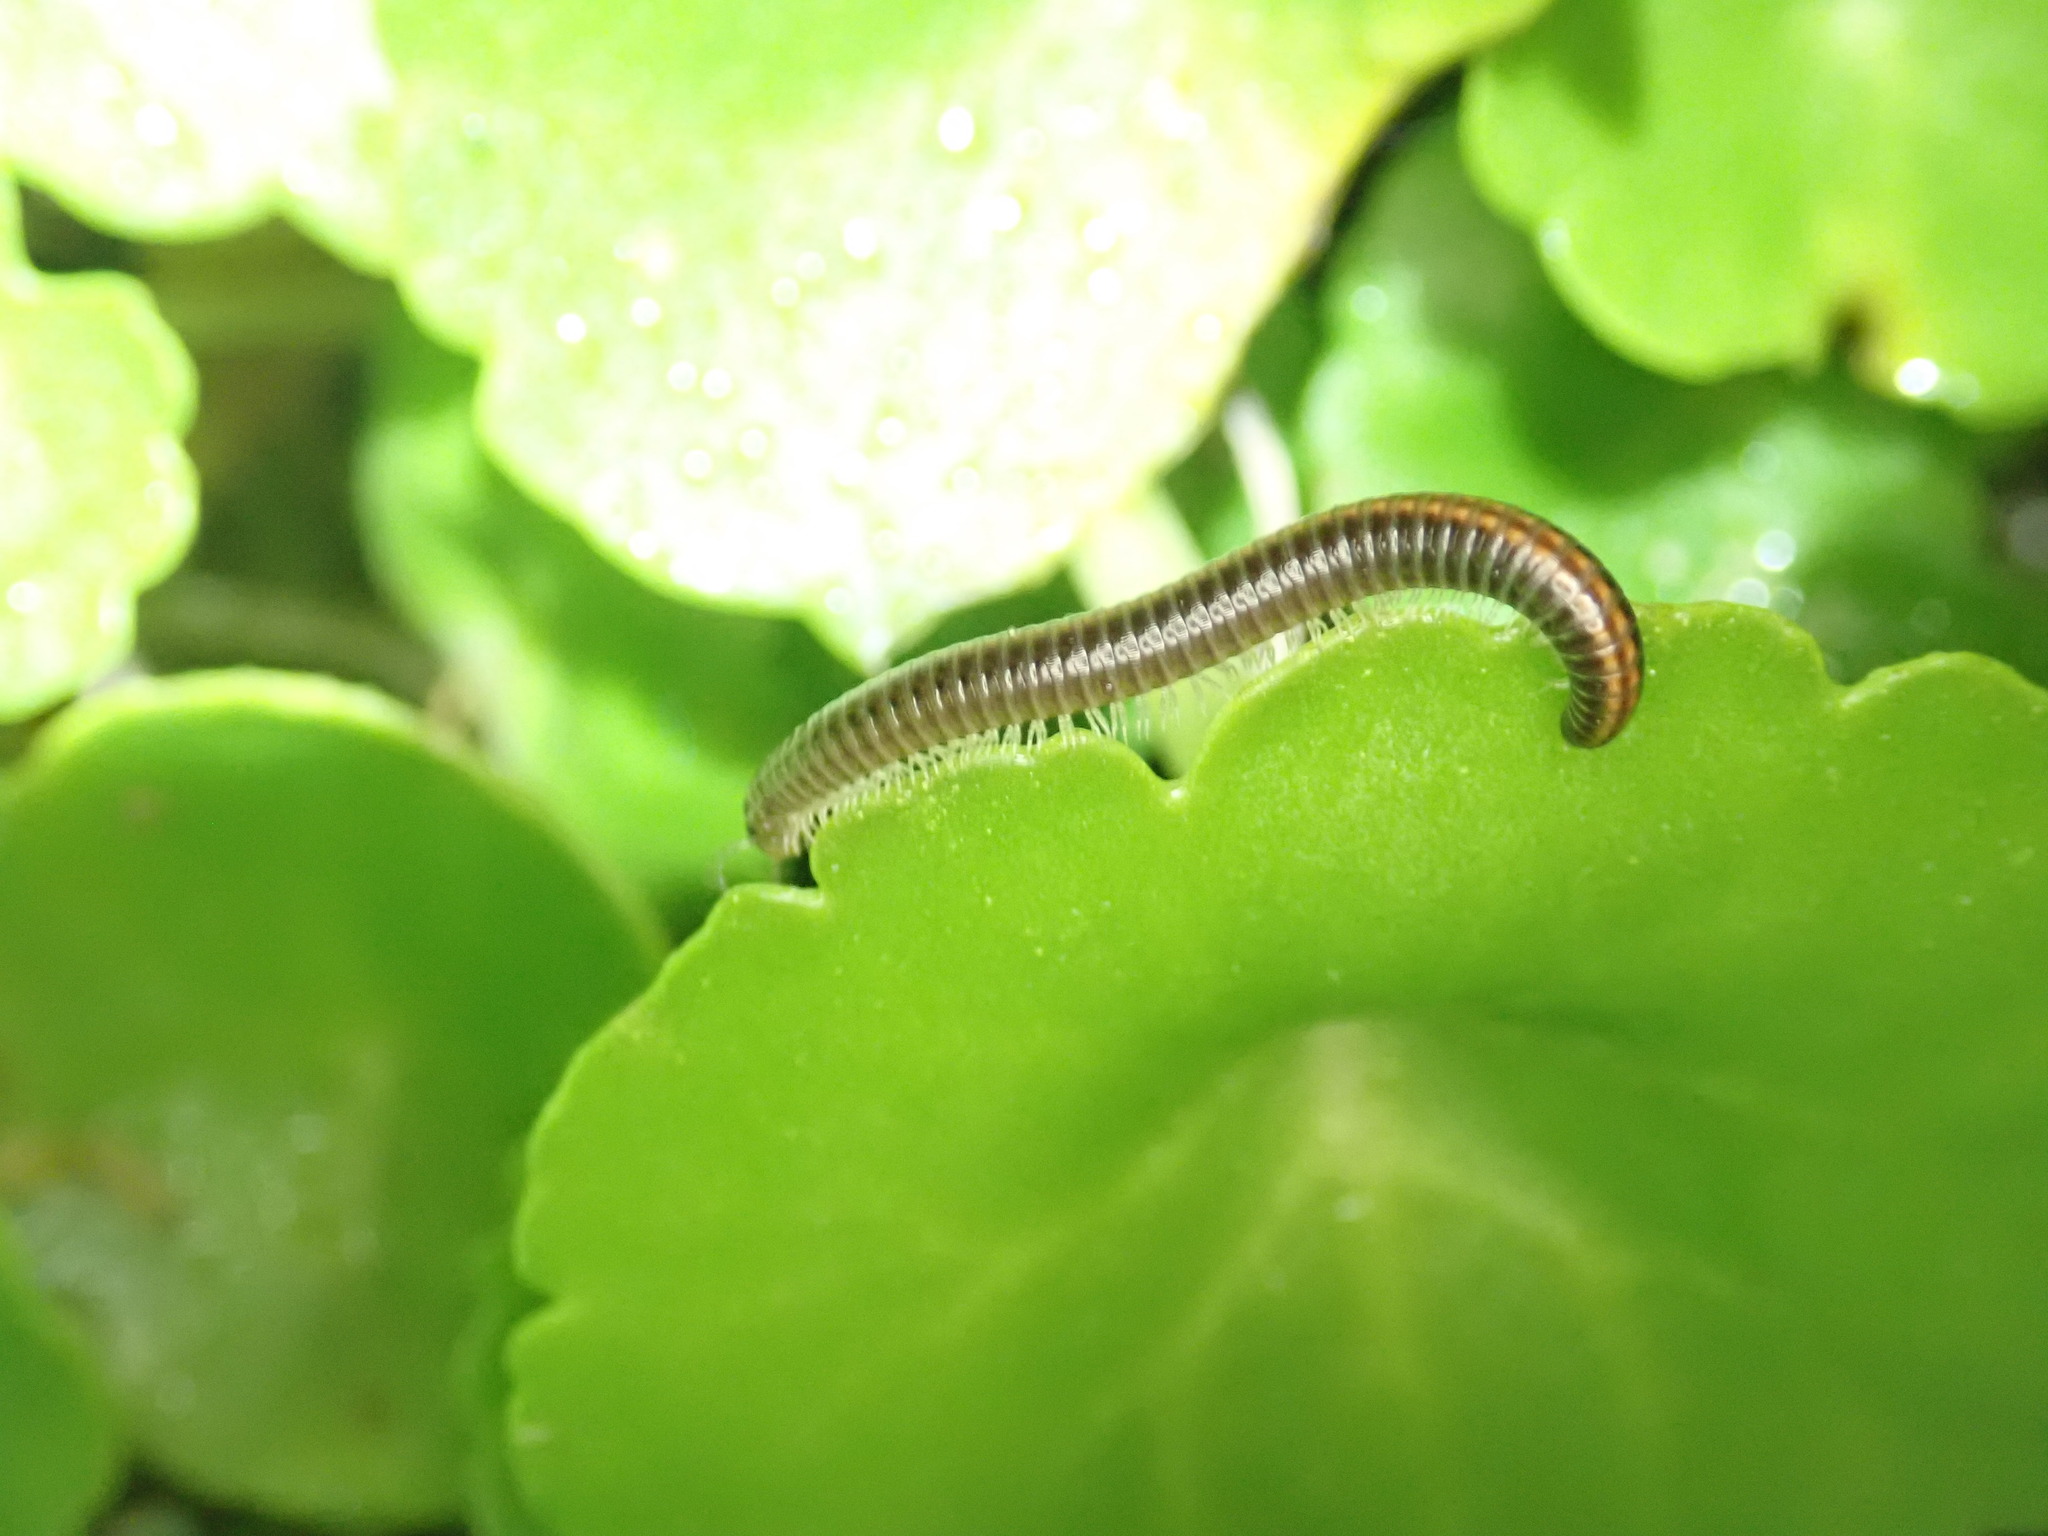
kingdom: Animalia
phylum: Arthropoda
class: Diplopoda
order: Julida
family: Julidae
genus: Ommatoiulus
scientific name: Ommatoiulus sabulosus
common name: Striped millipede
